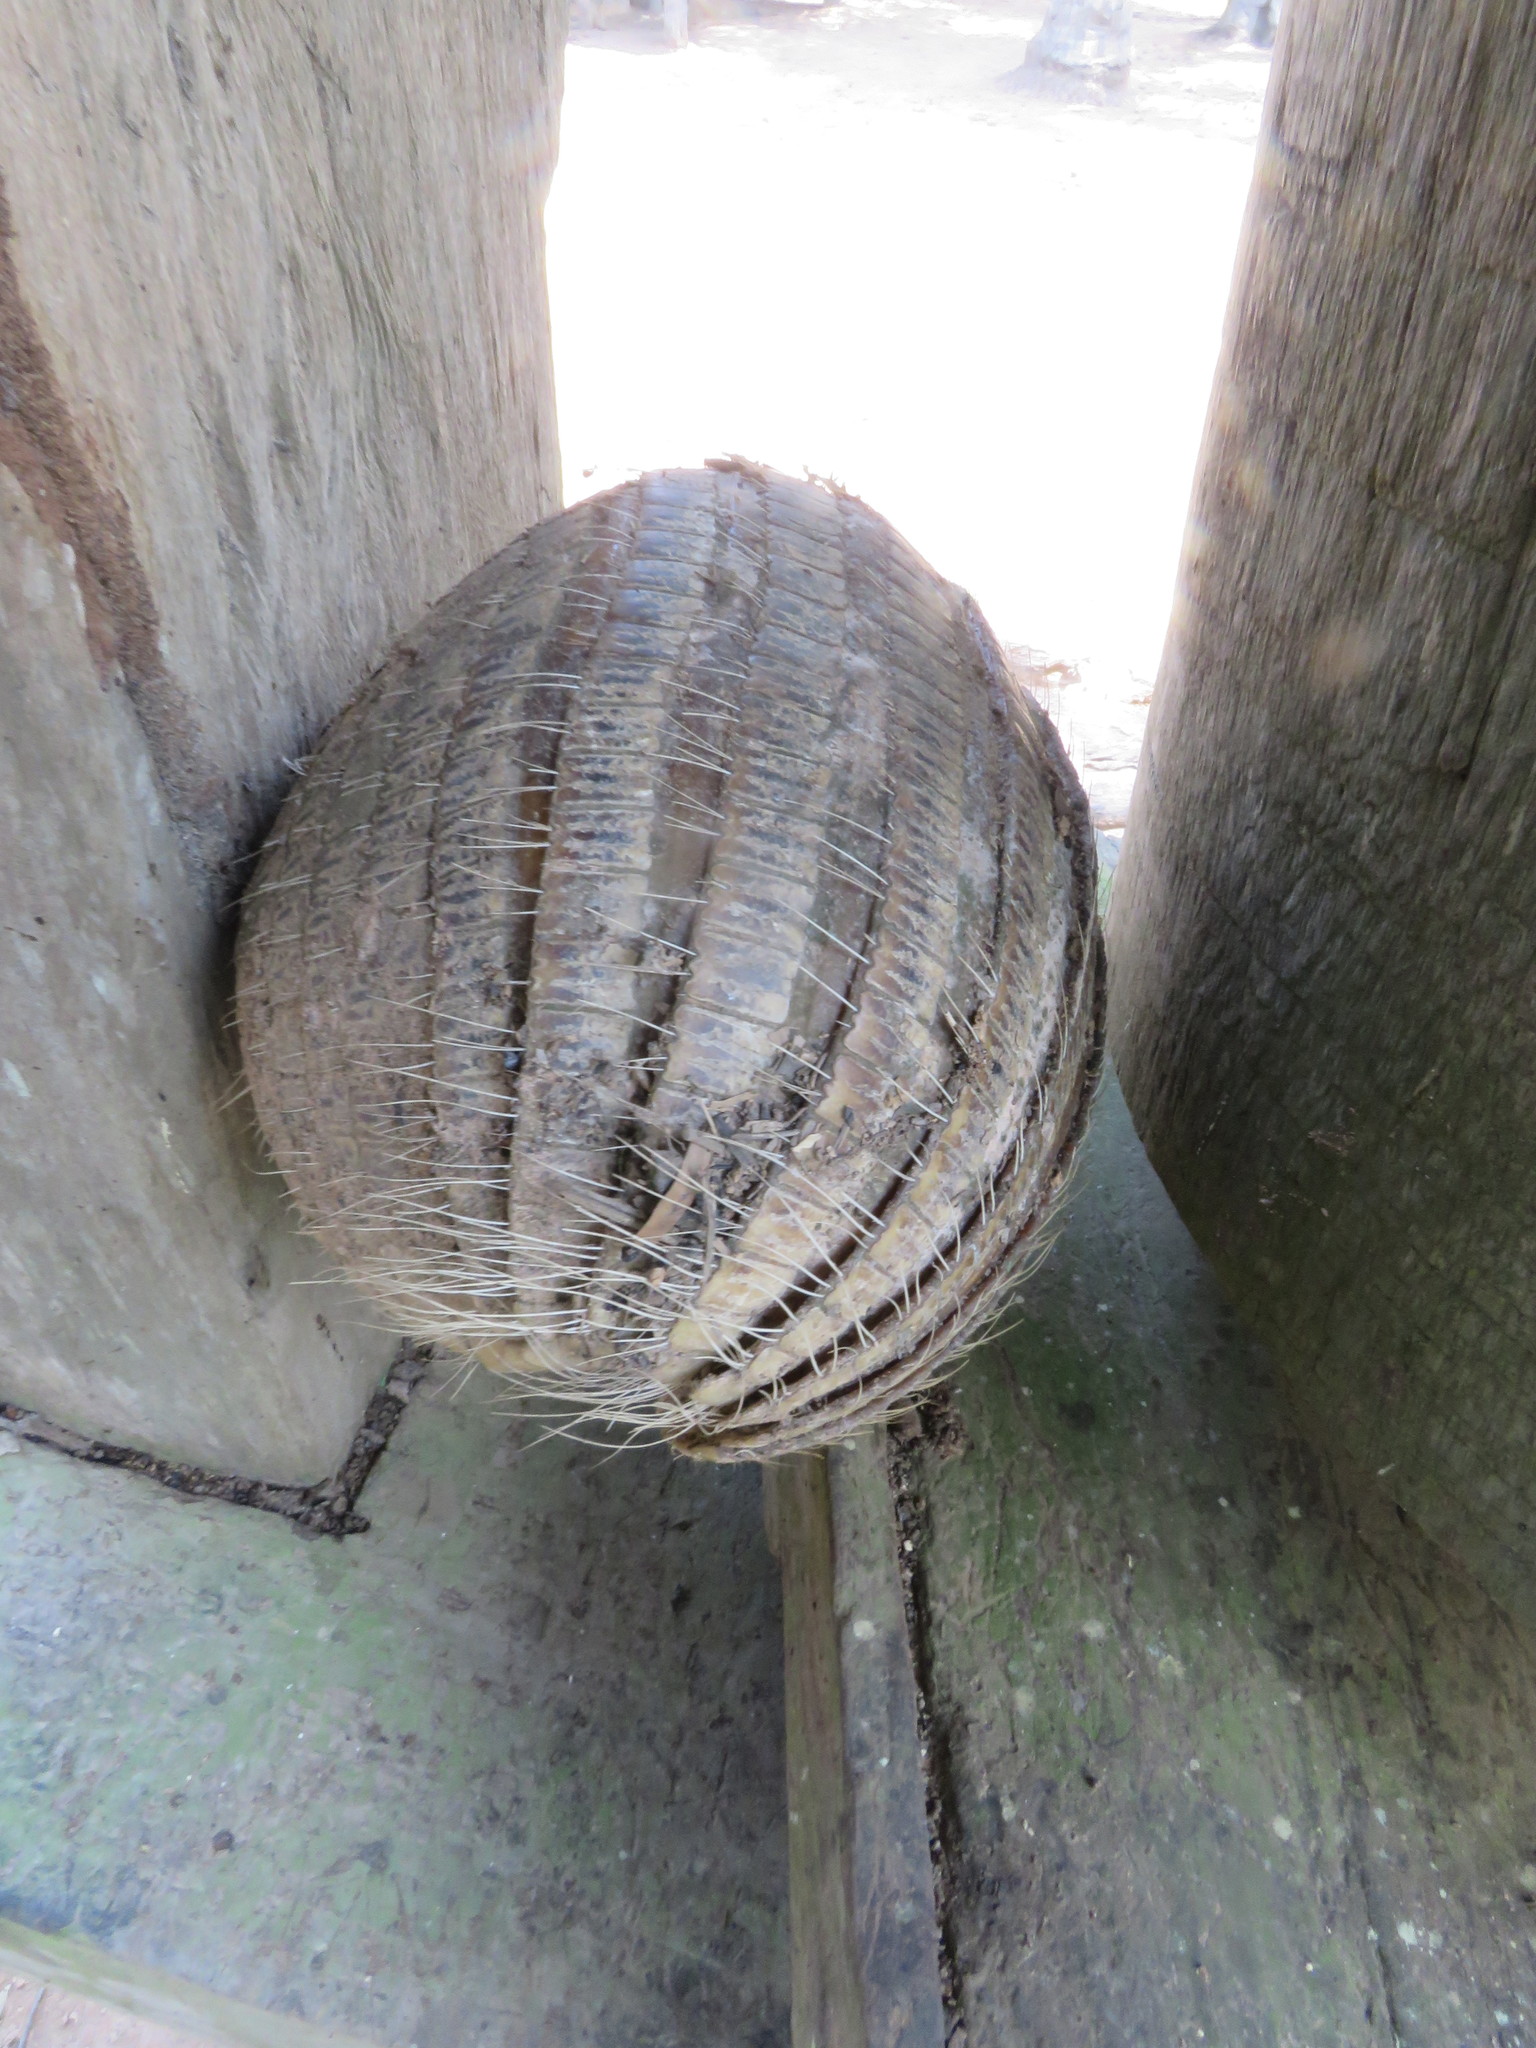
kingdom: Animalia
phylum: Chordata
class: Mammalia
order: Cingulata
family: Dasypodidae
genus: Euphractus
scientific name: Euphractus sexcinctus
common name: Six-banded armadillo
